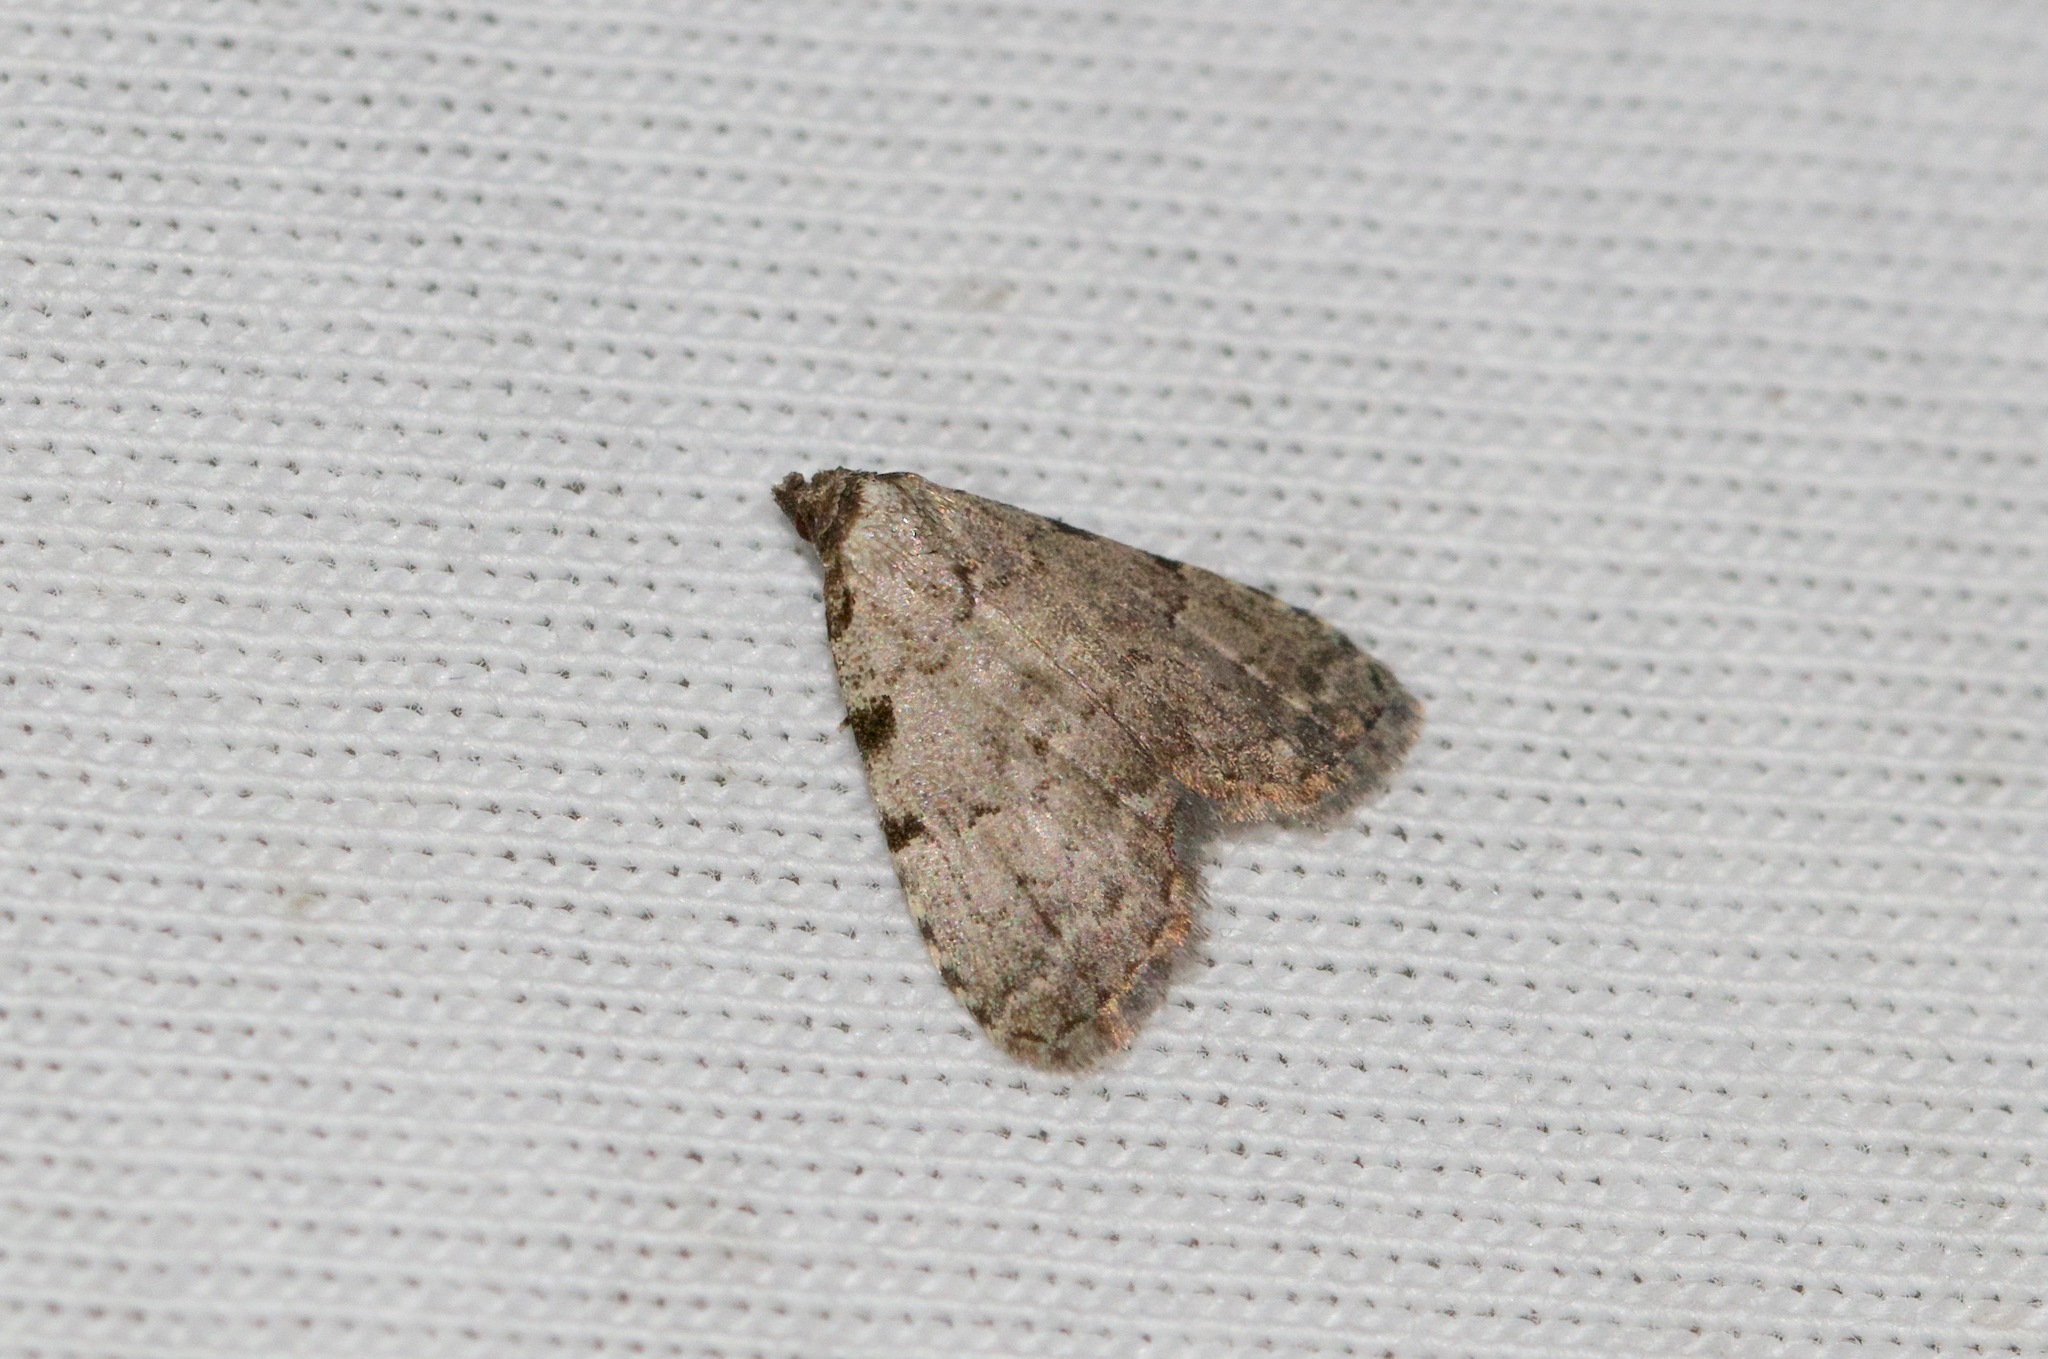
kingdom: Animalia
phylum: Arthropoda
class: Insecta
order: Lepidoptera
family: Erebidae
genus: Dyspyralis
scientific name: Dyspyralis puncticosta
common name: Spot-edged dyspyralis moth
